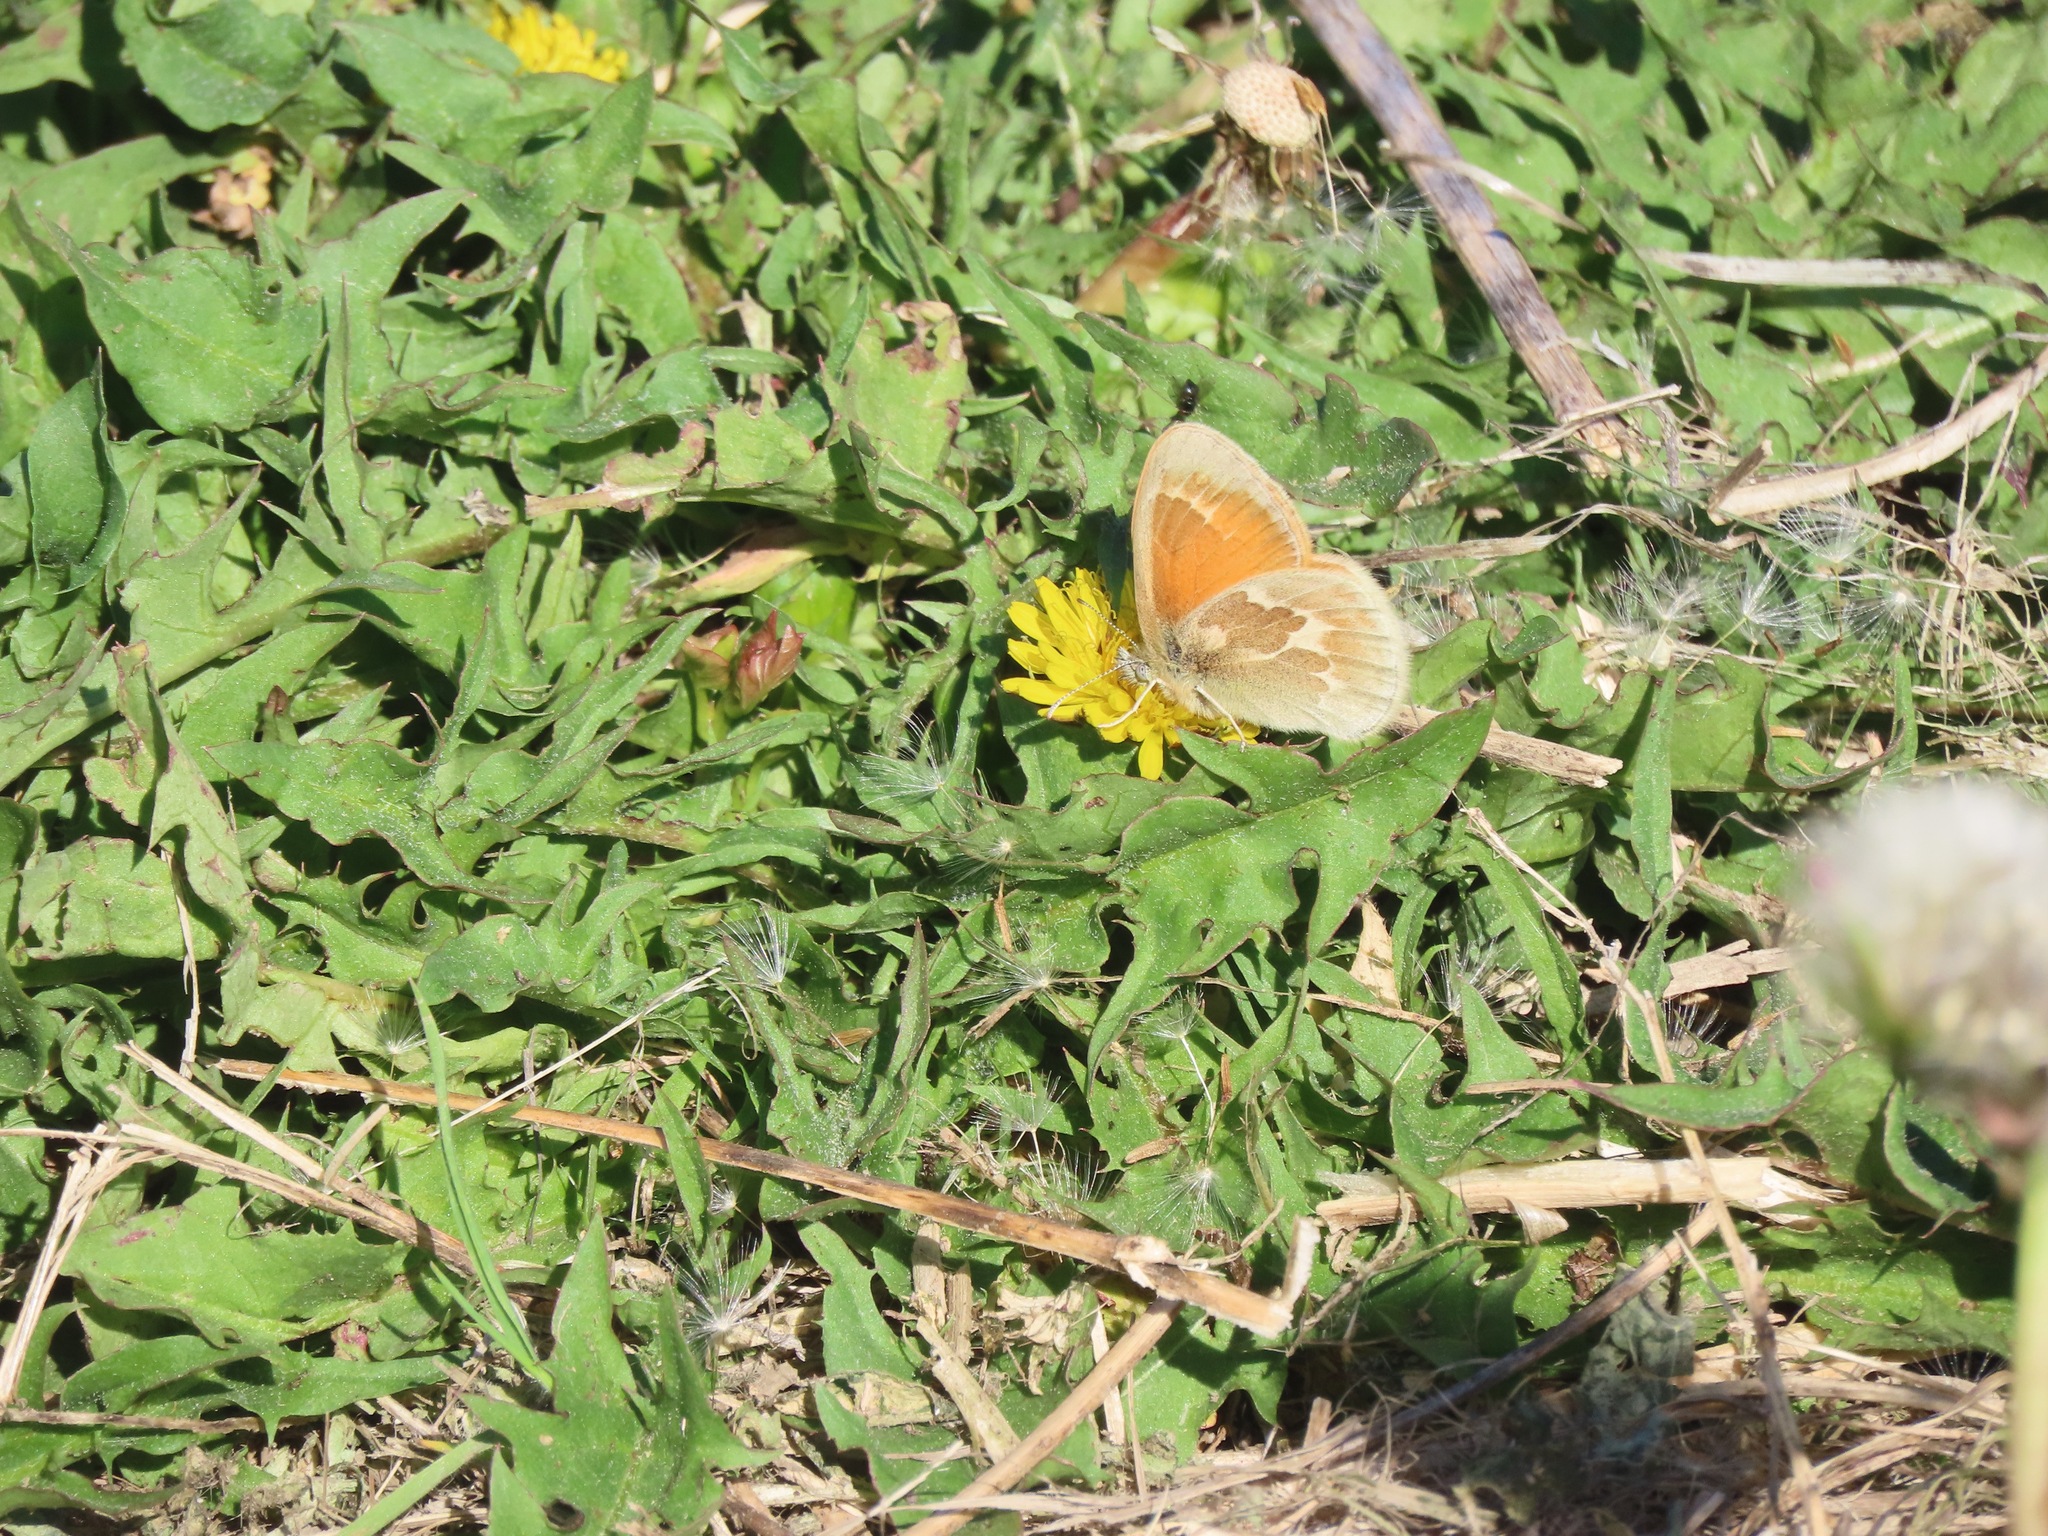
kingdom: Animalia
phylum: Arthropoda
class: Insecta
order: Lepidoptera
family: Nymphalidae
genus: Coenonympha
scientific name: Coenonympha california
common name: Common ringlet
